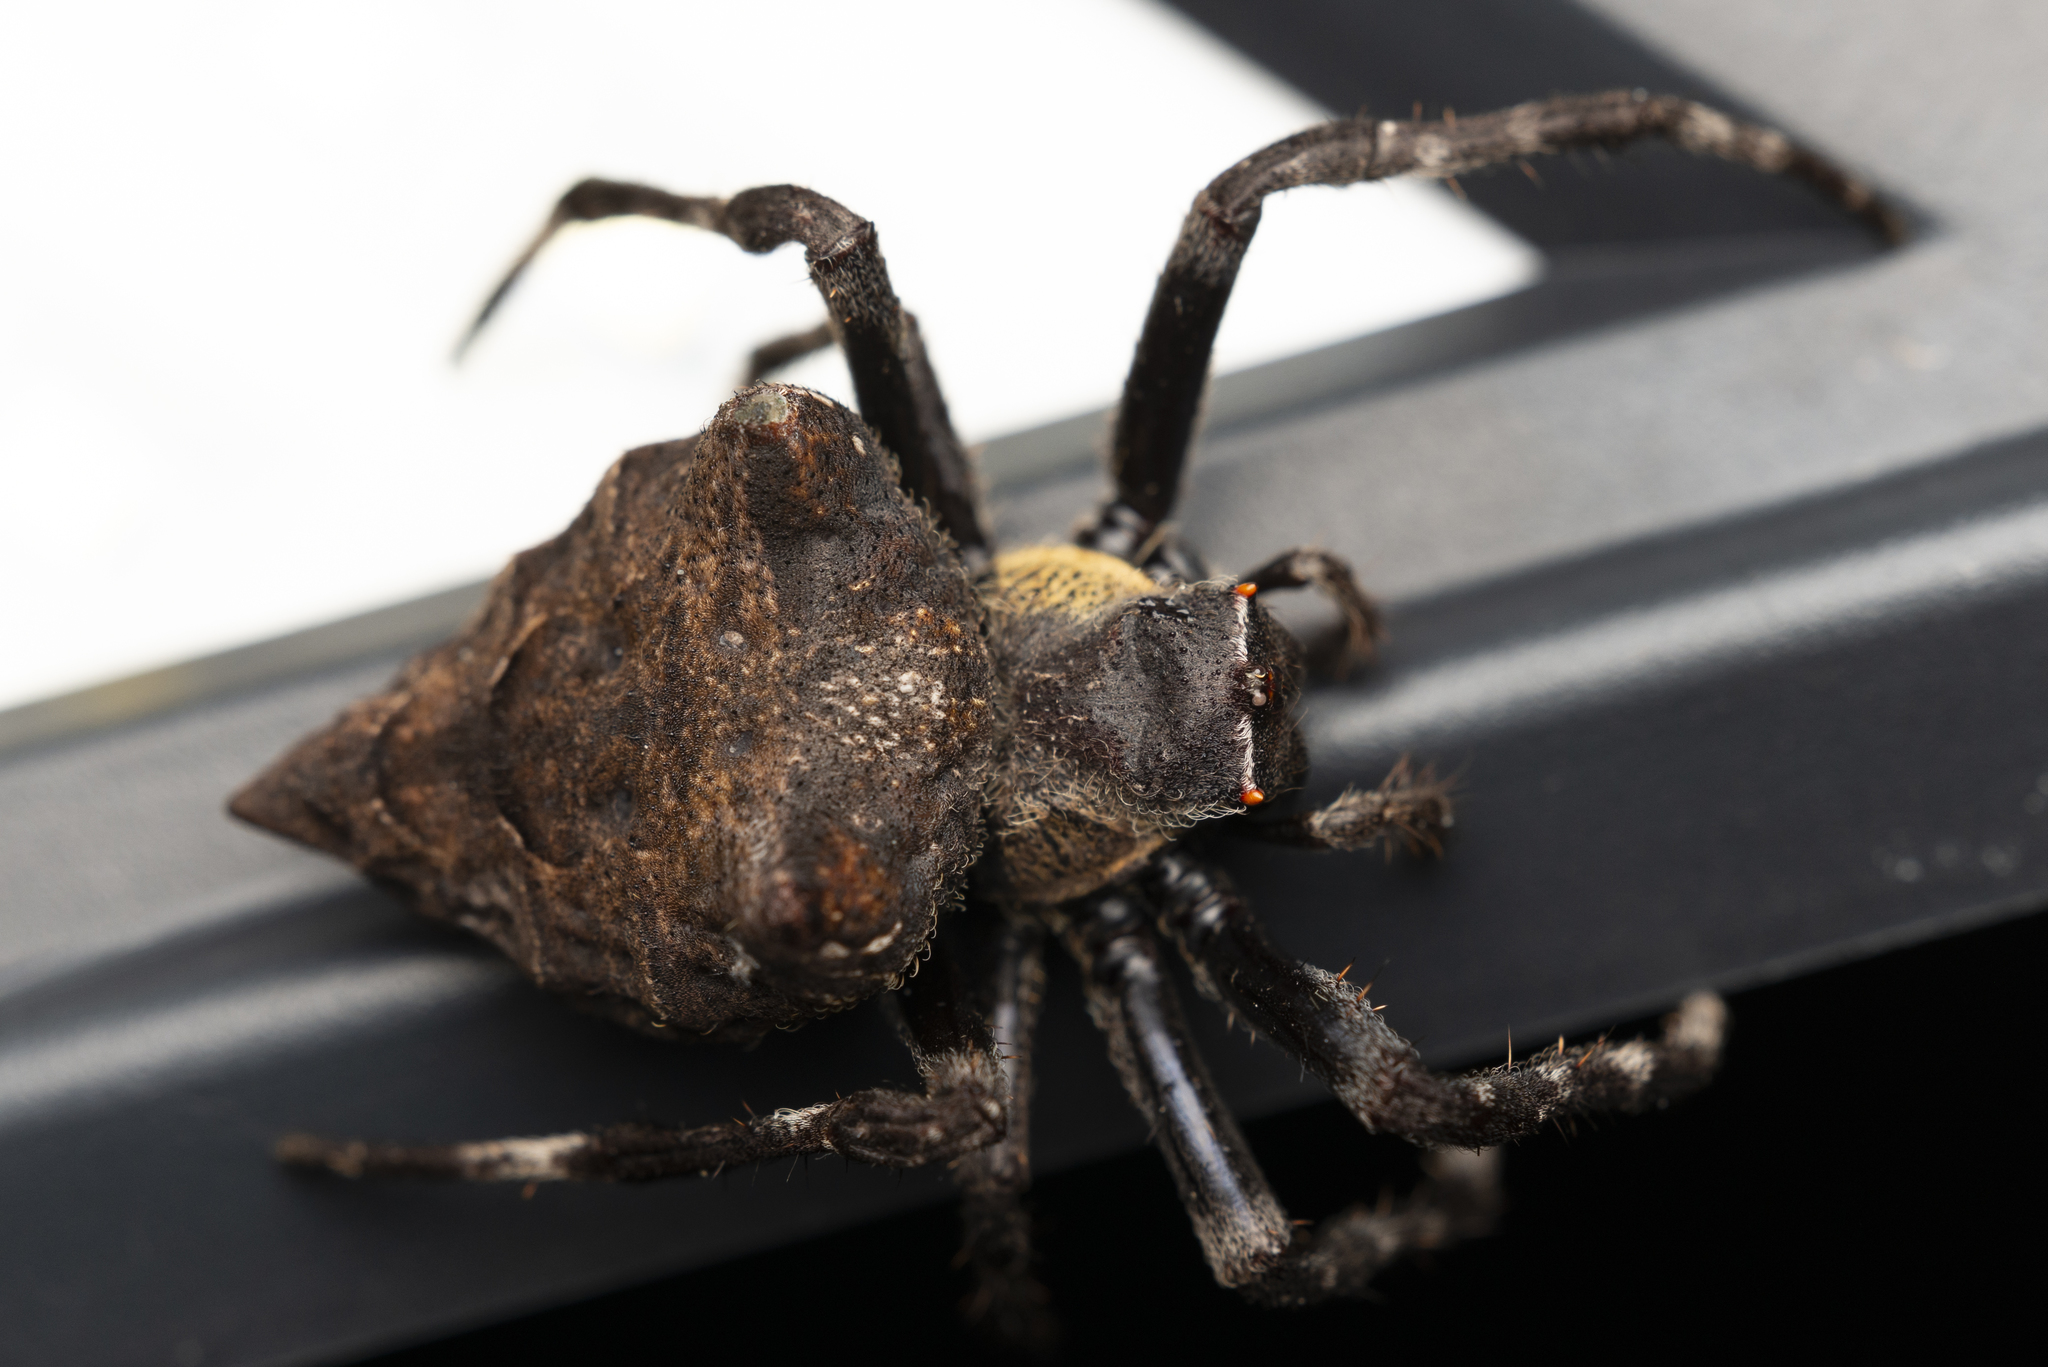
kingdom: Animalia
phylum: Arthropoda
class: Arachnida
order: Araneae
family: Araneidae
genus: Parawixia
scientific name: Parawixia dehaani
